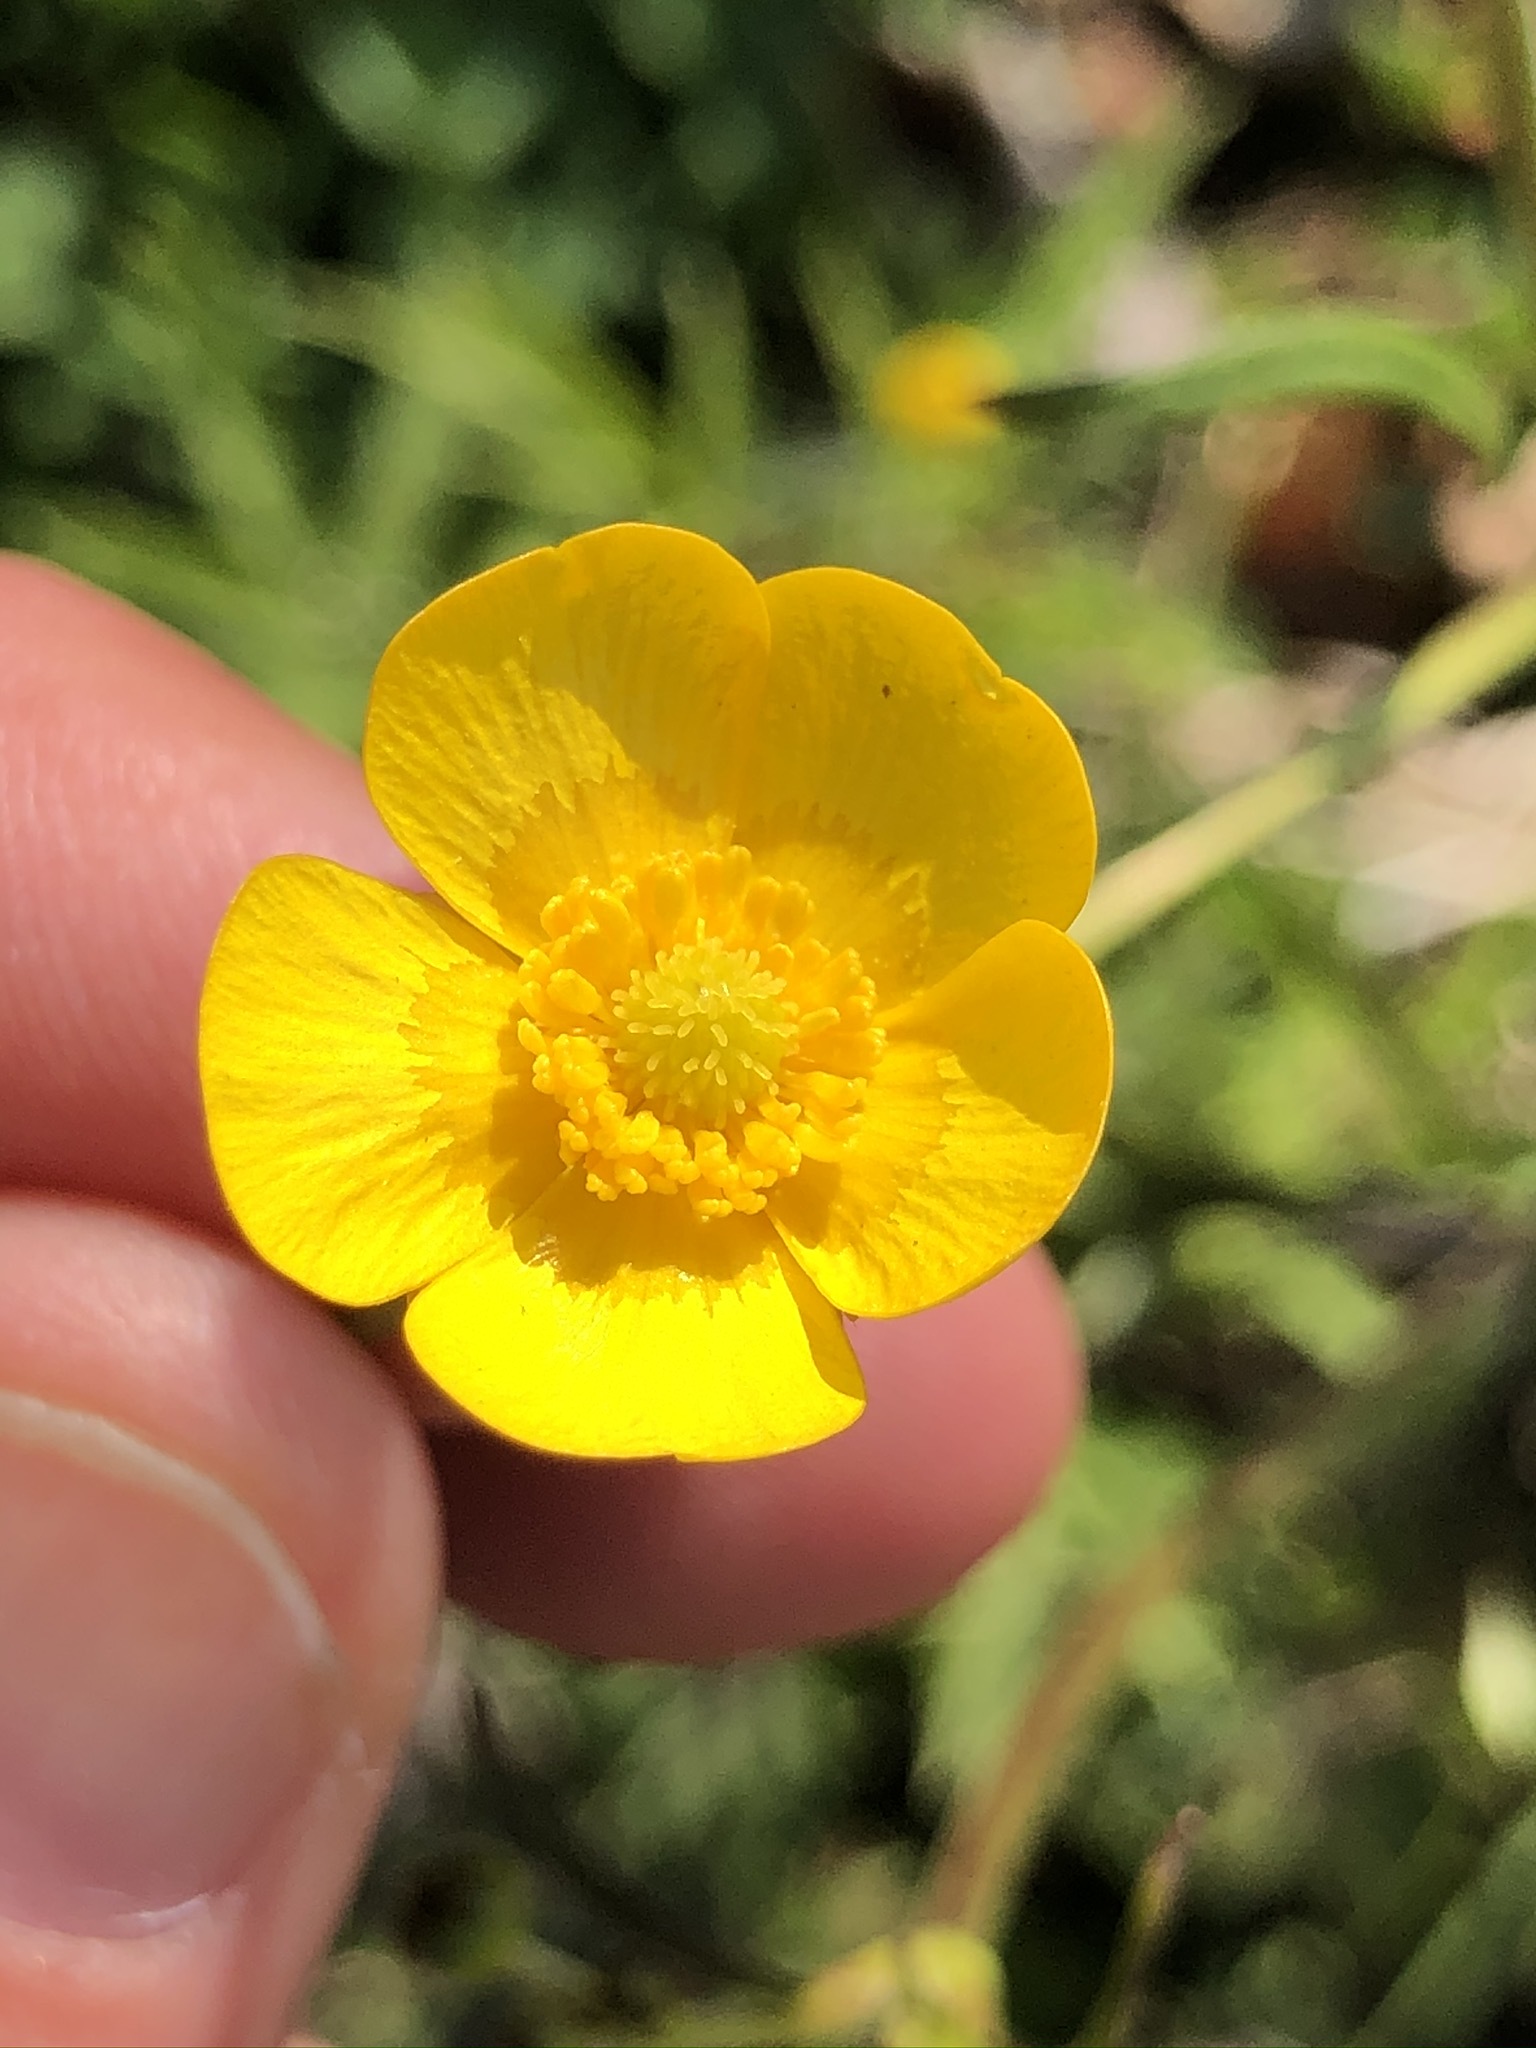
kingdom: Plantae
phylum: Tracheophyta
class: Magnoliopsida
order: Ranunculales
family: Ranunculaceae
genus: Ranunculus
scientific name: Ranunculus acris
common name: Meadow buttercup
